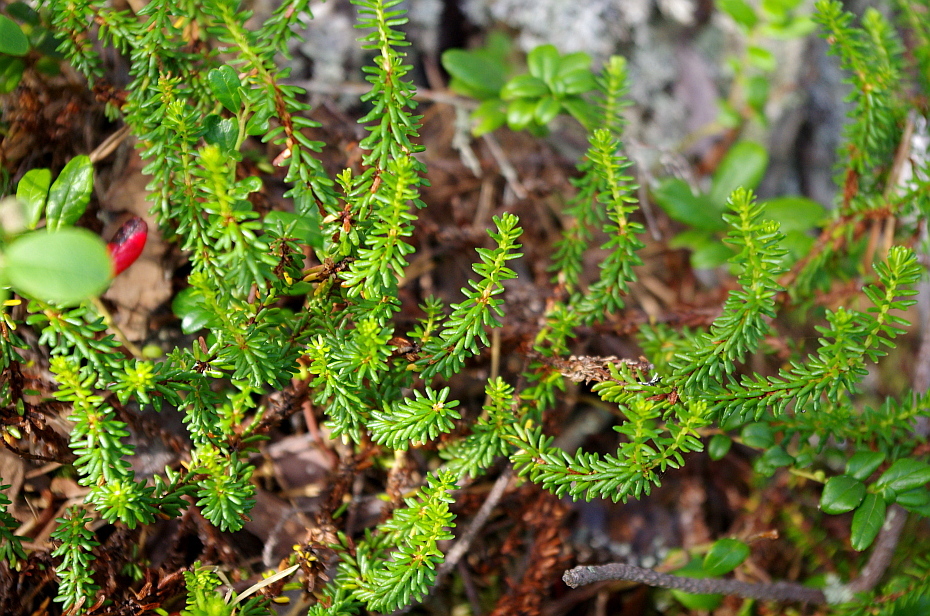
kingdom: Plantae
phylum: Tracheophyta
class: Magnoliopsida
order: Ericales
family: Ericaceae
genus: Empetrum
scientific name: Empetrum nigrum
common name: Black crowberry
